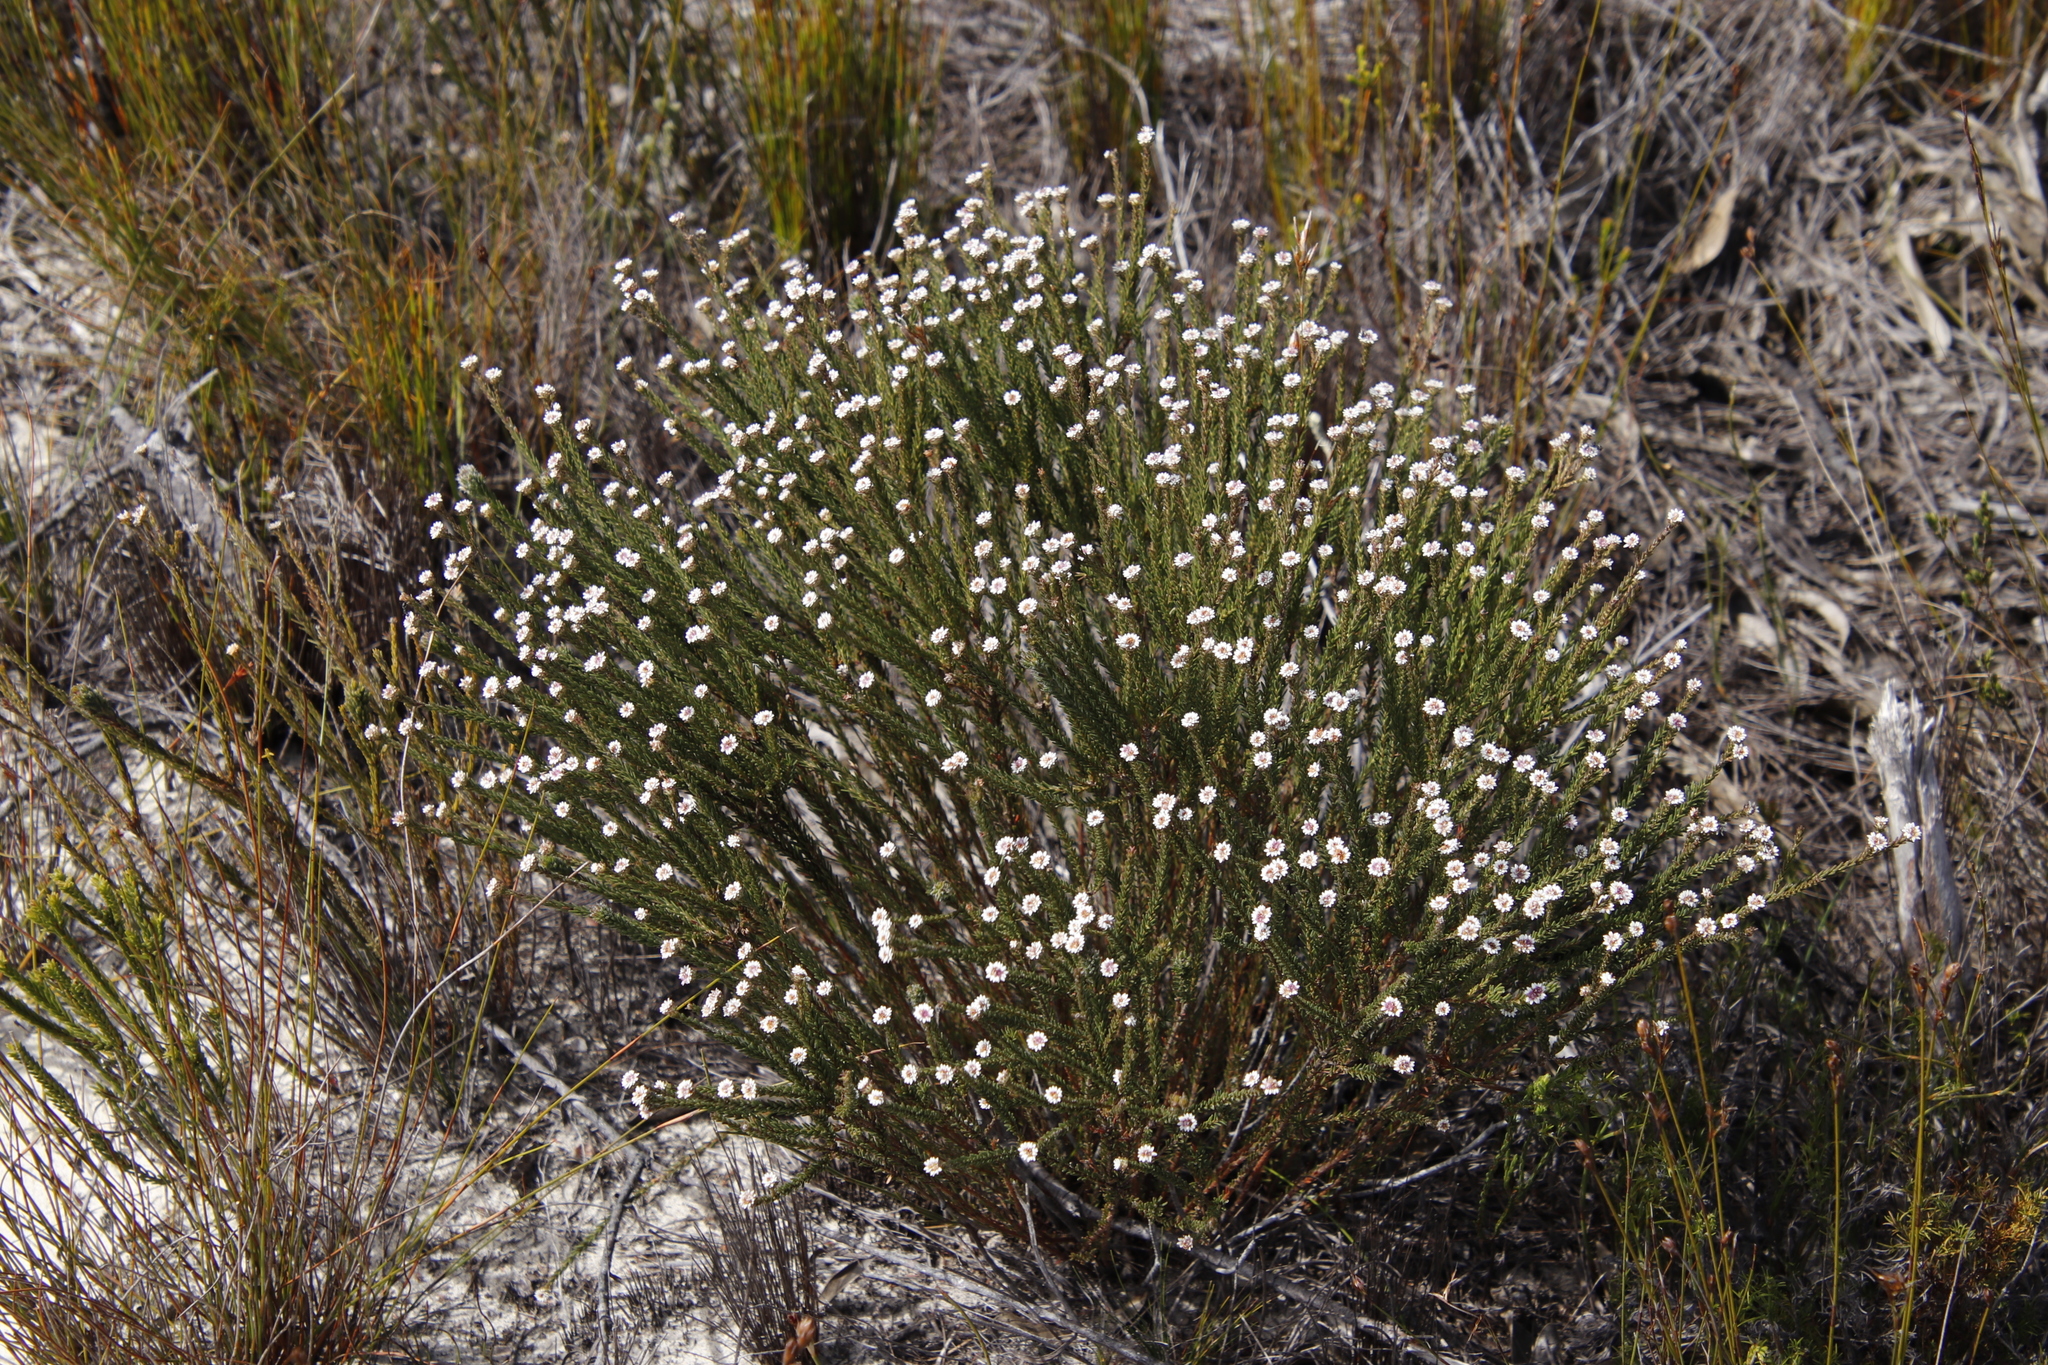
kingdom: Plantae
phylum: Tracheophyta
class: Magnoliopsida
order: Bruniales
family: Bruniaceae
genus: Staavia
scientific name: Staavia radiata
